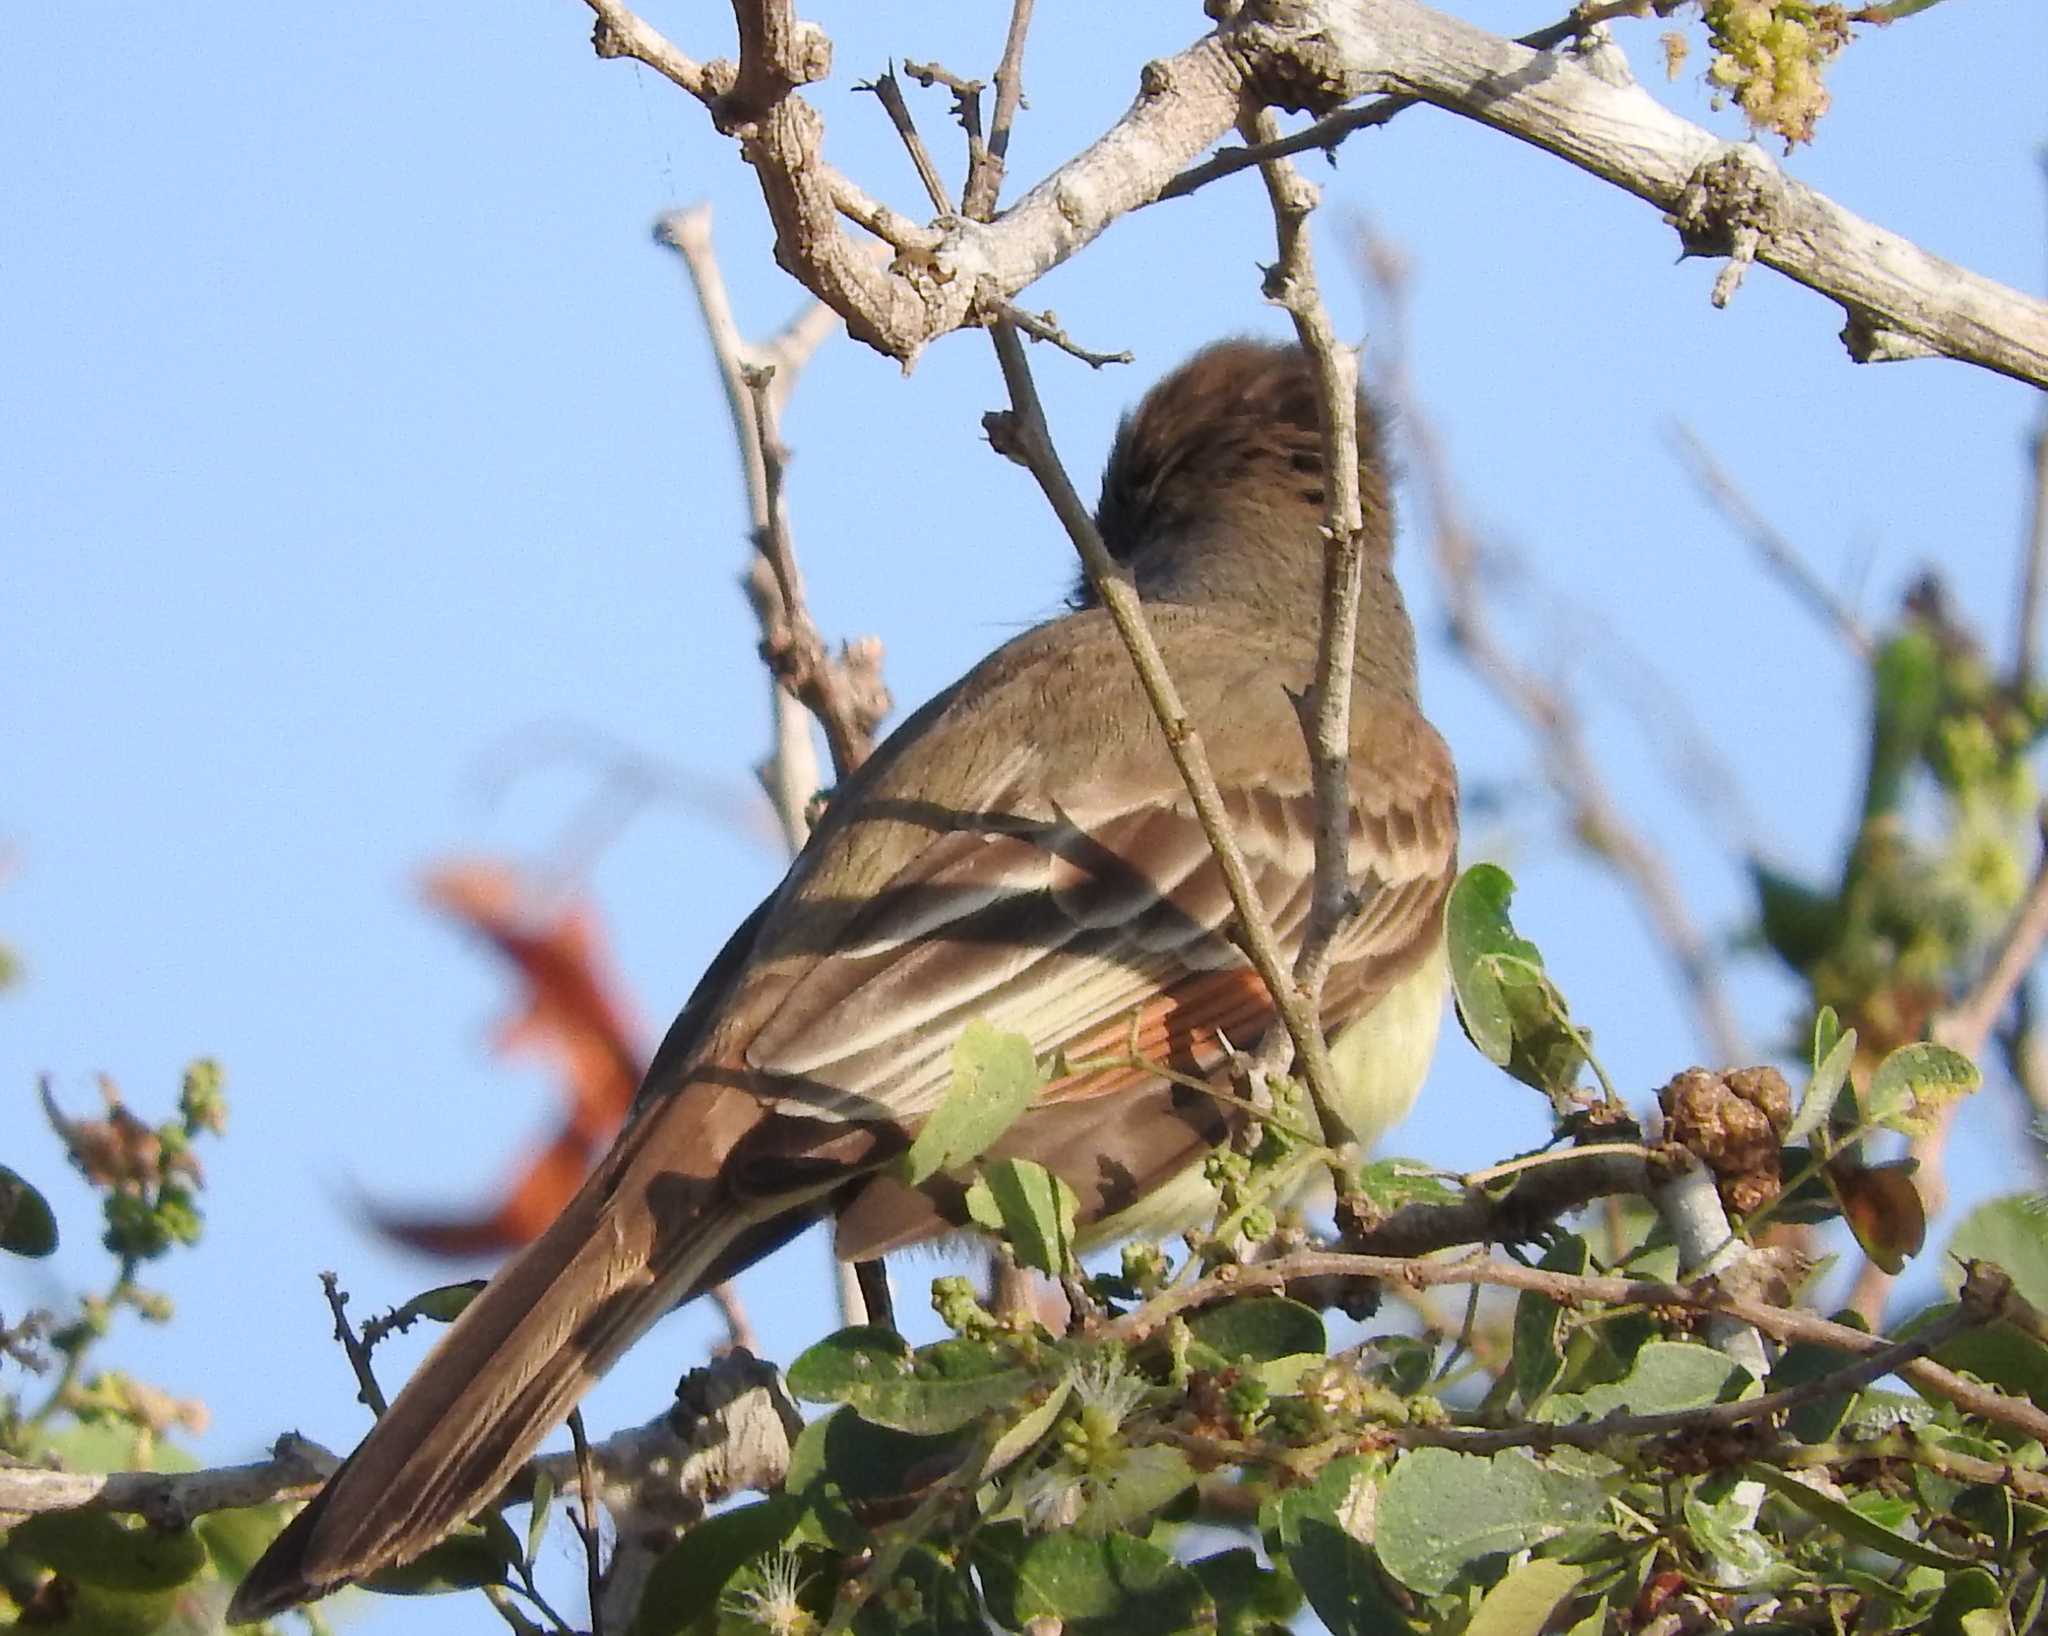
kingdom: Animalia
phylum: Chordata
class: Aves
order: Passeriformes
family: Tyrannidae
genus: Myiarchus
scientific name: Myiarchus
